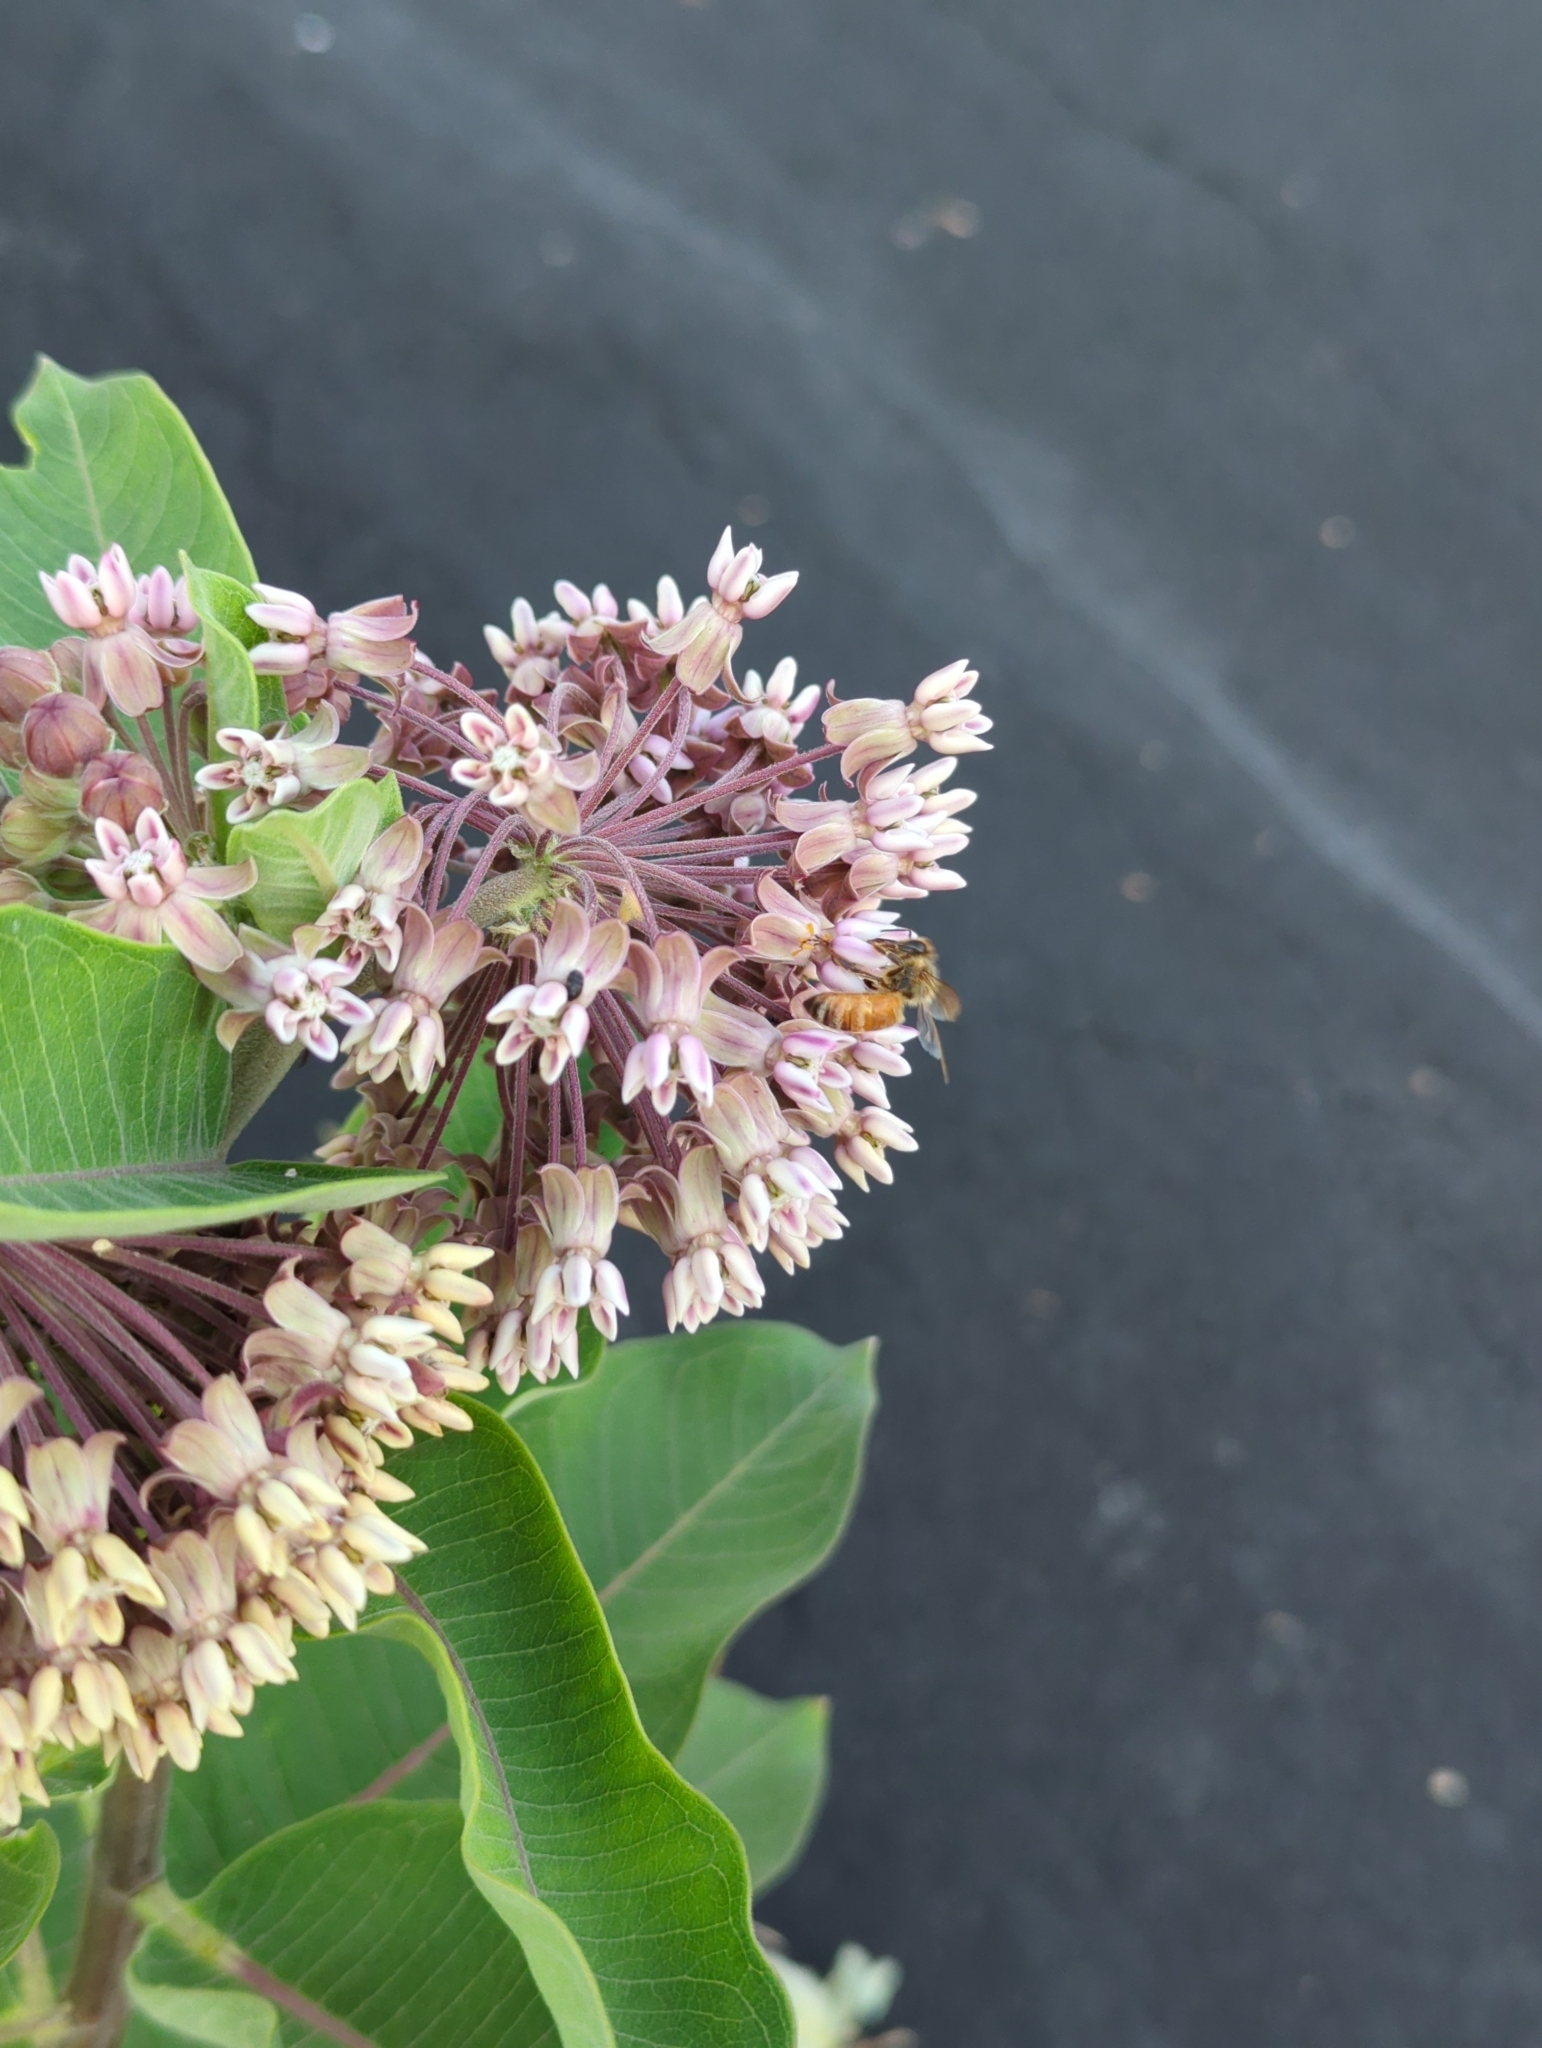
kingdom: Animalia
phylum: Arthropoda
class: Insecta
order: Hymenoptera
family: Apidae
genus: Apis
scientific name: Apis mellifera
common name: Honey bee
